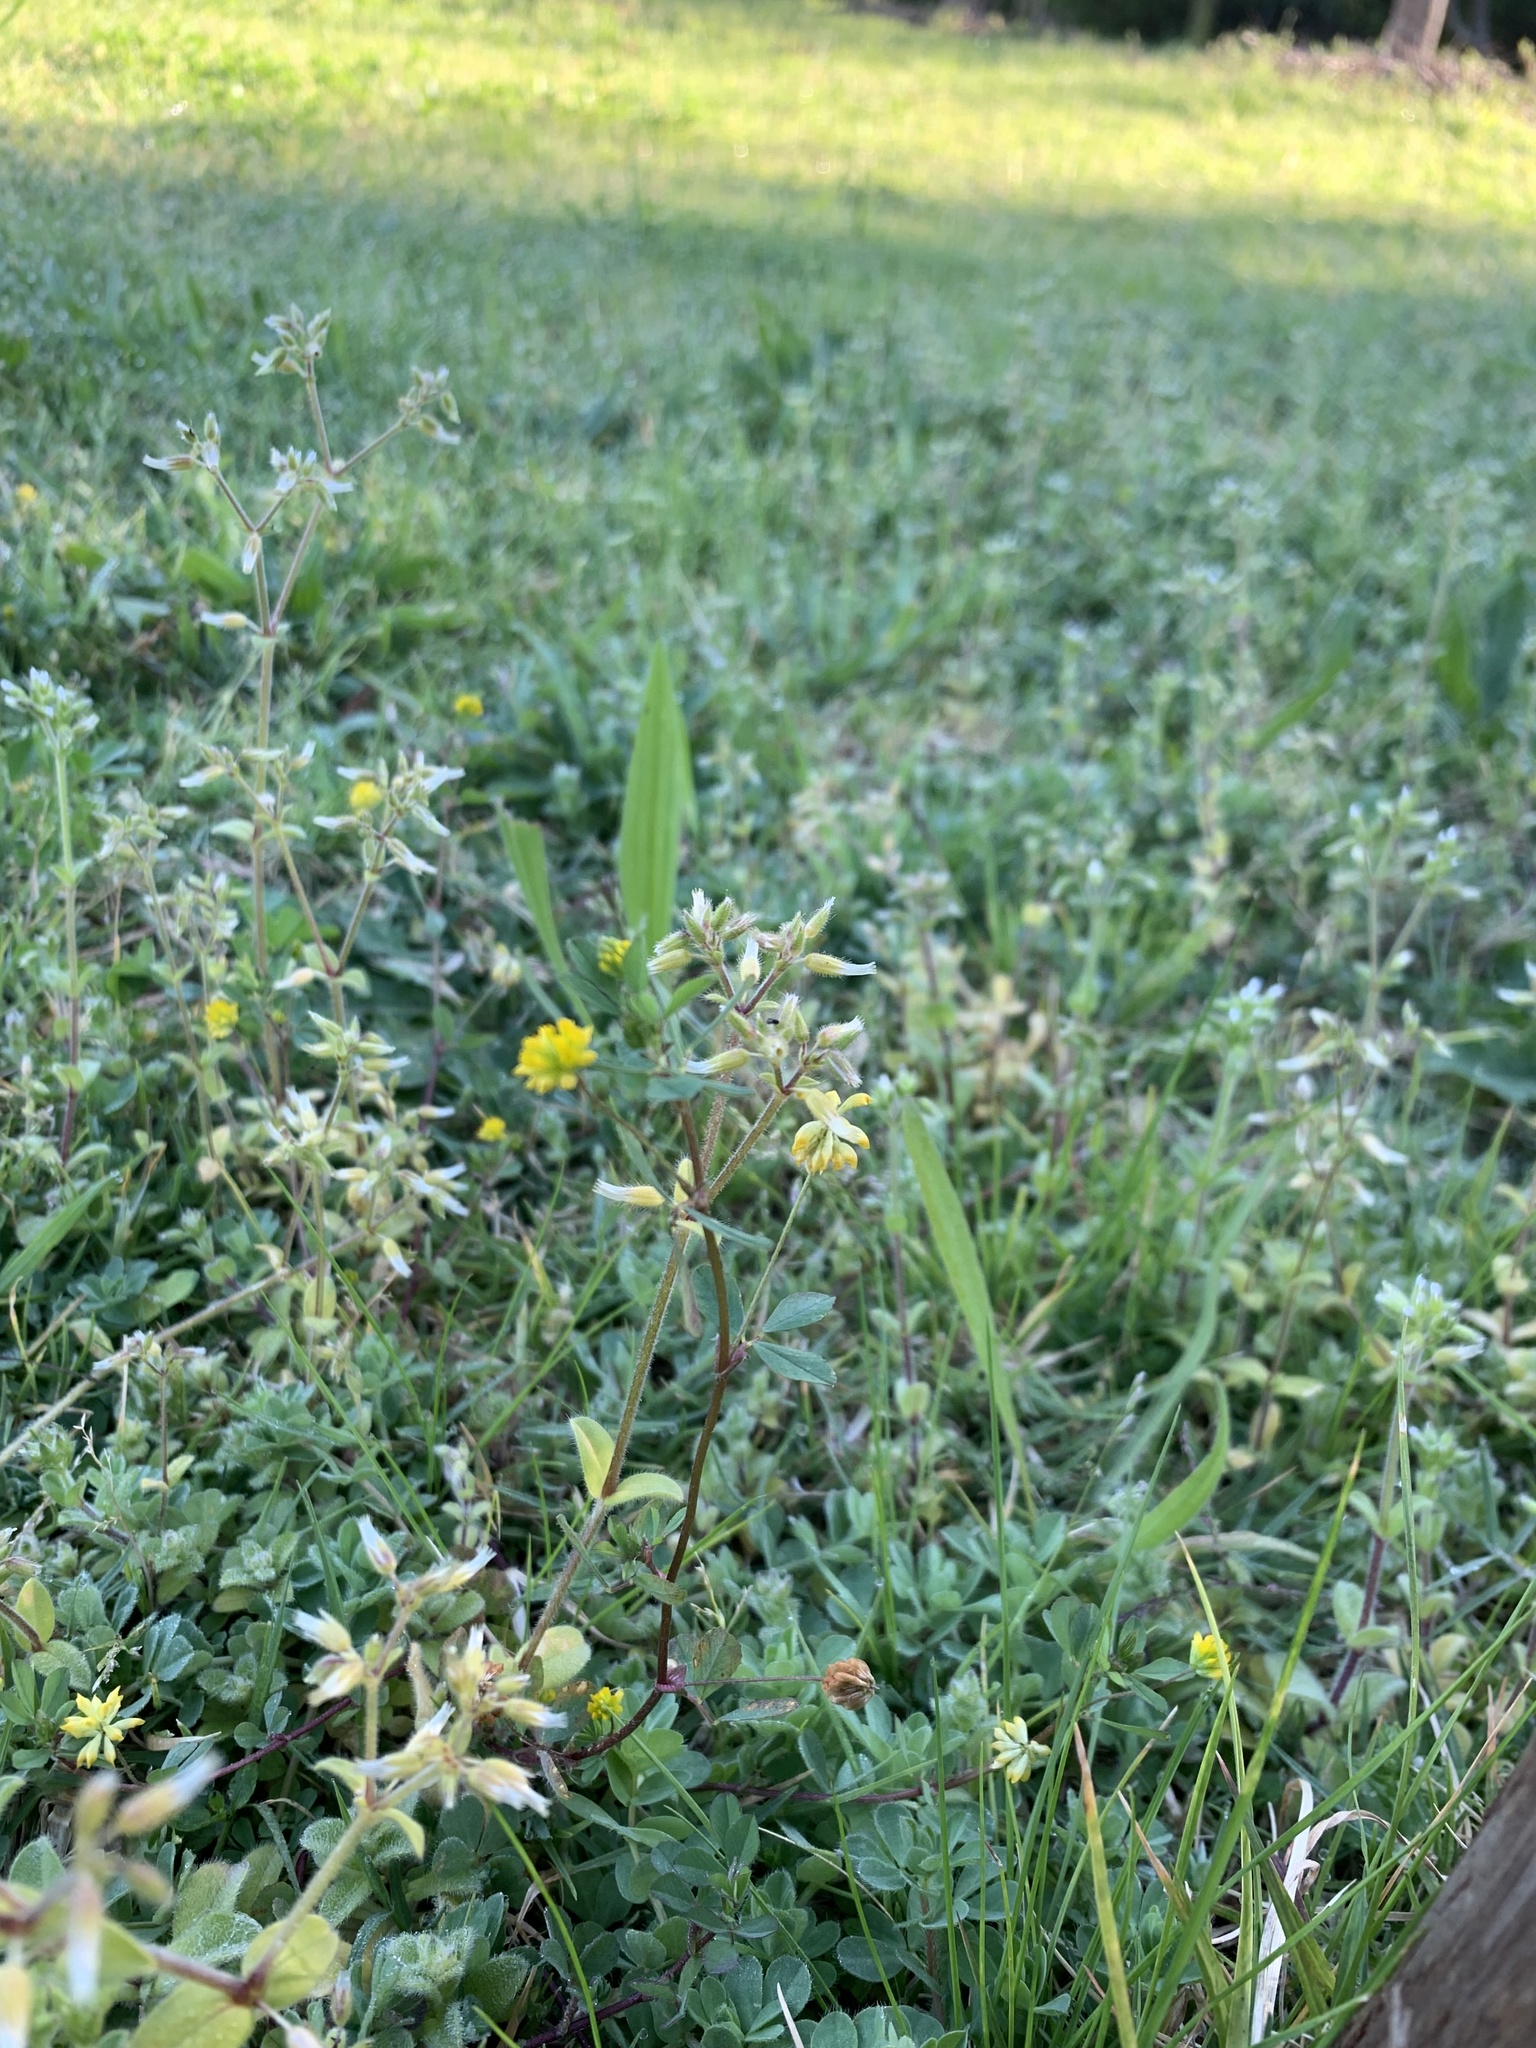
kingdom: Plantae
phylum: Tracheophyta
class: Magnoliopsida
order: Fabales
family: Fabaceae
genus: Trifolium
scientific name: Trifolium dubium
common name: Suckling clover
